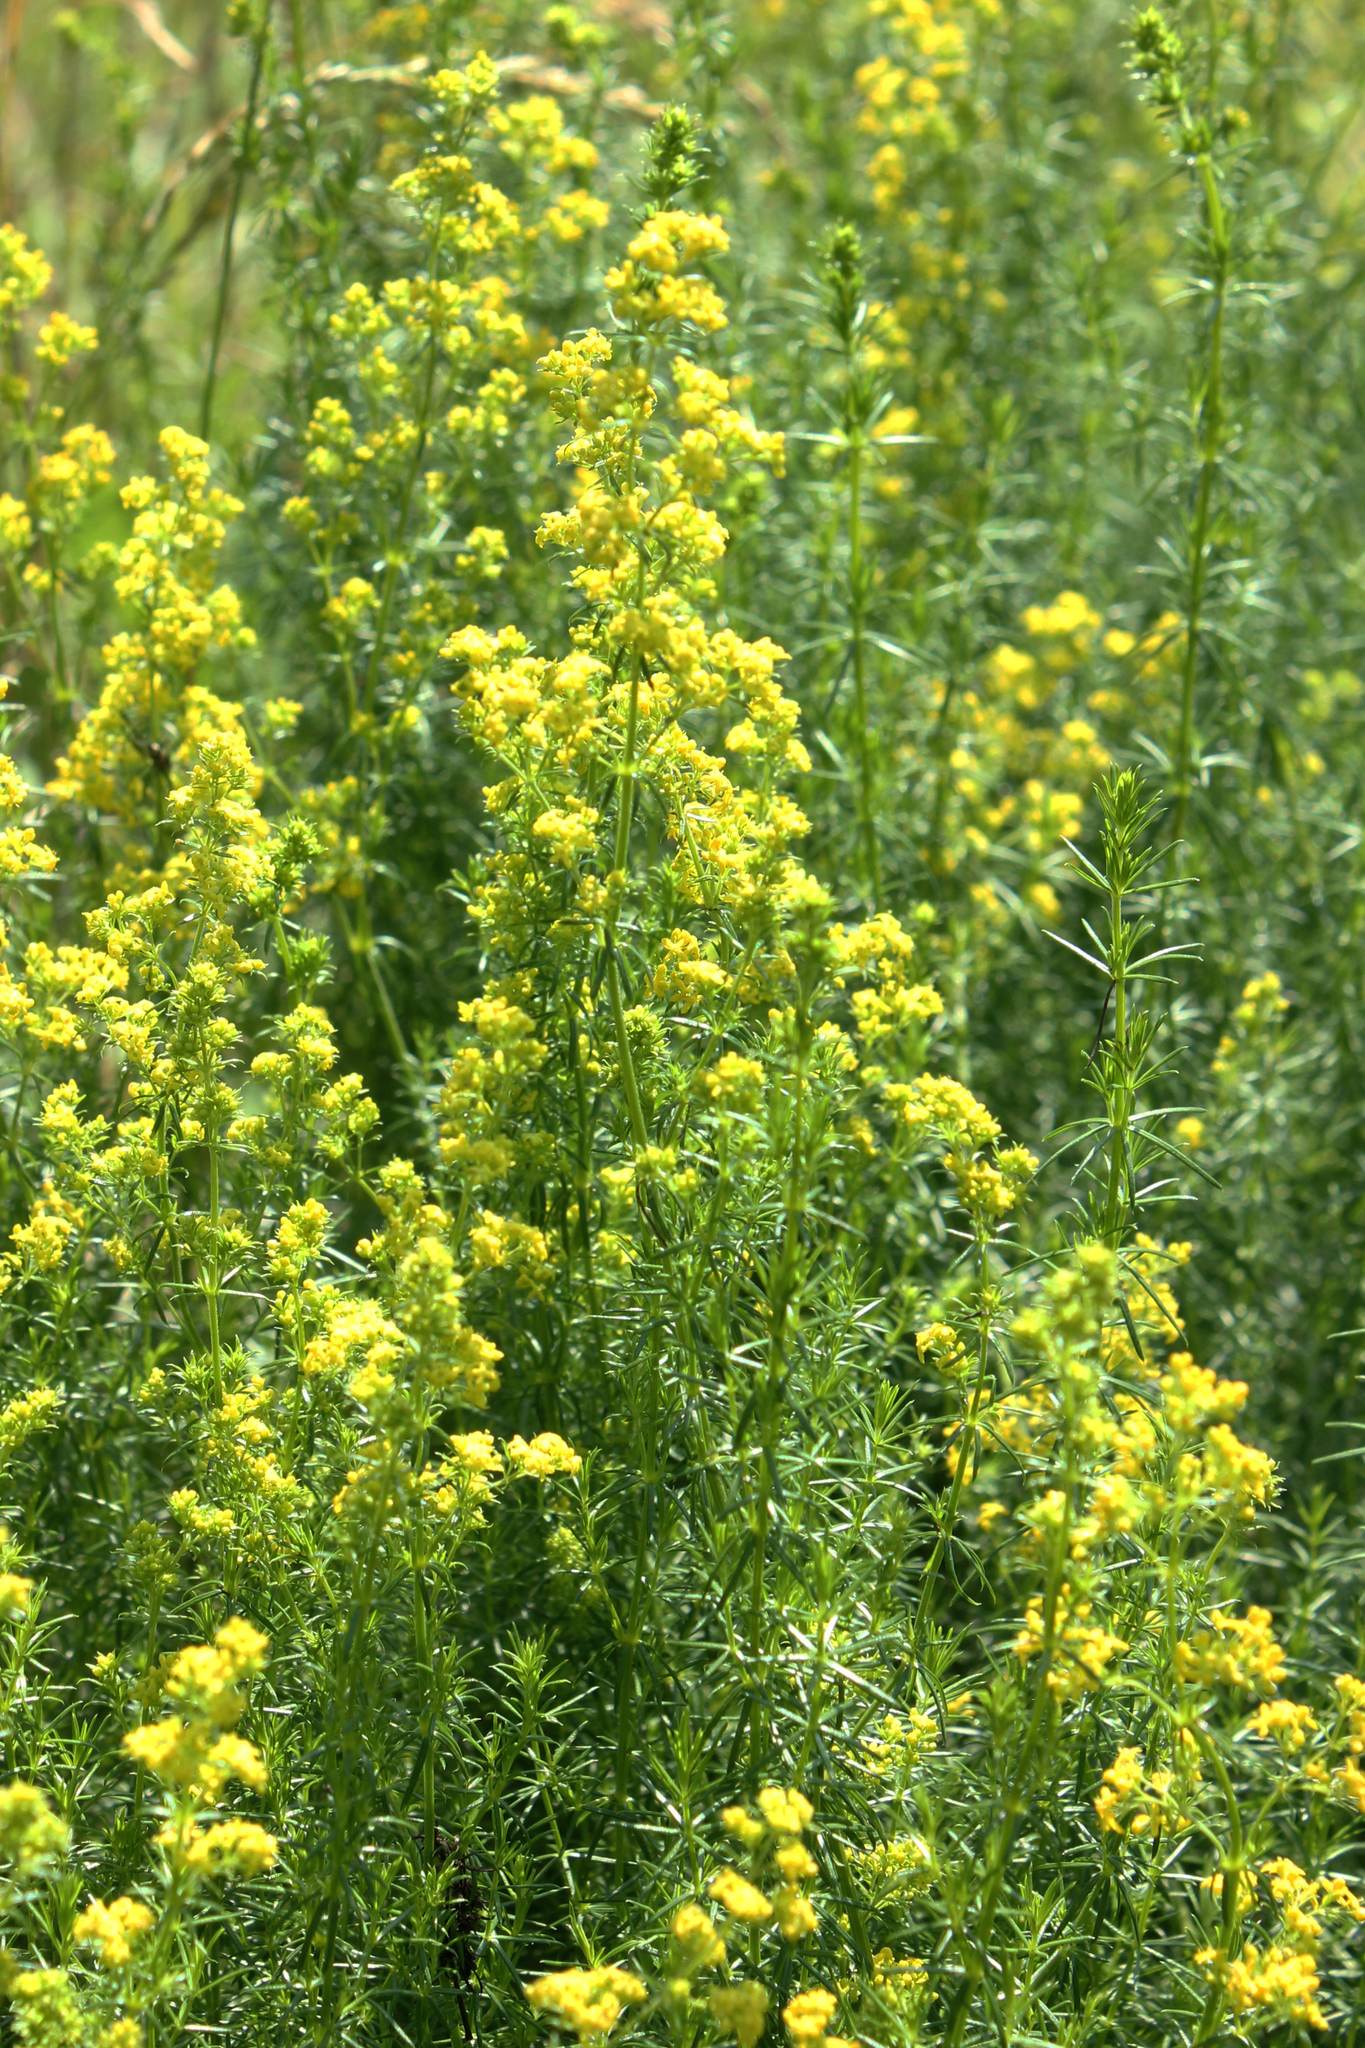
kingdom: Plantae
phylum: Tracheophyta
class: Magnoliopsida
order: Gentianales
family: Rubiaceae
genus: Galium
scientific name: Galium verum
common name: Lady's bedstraw
